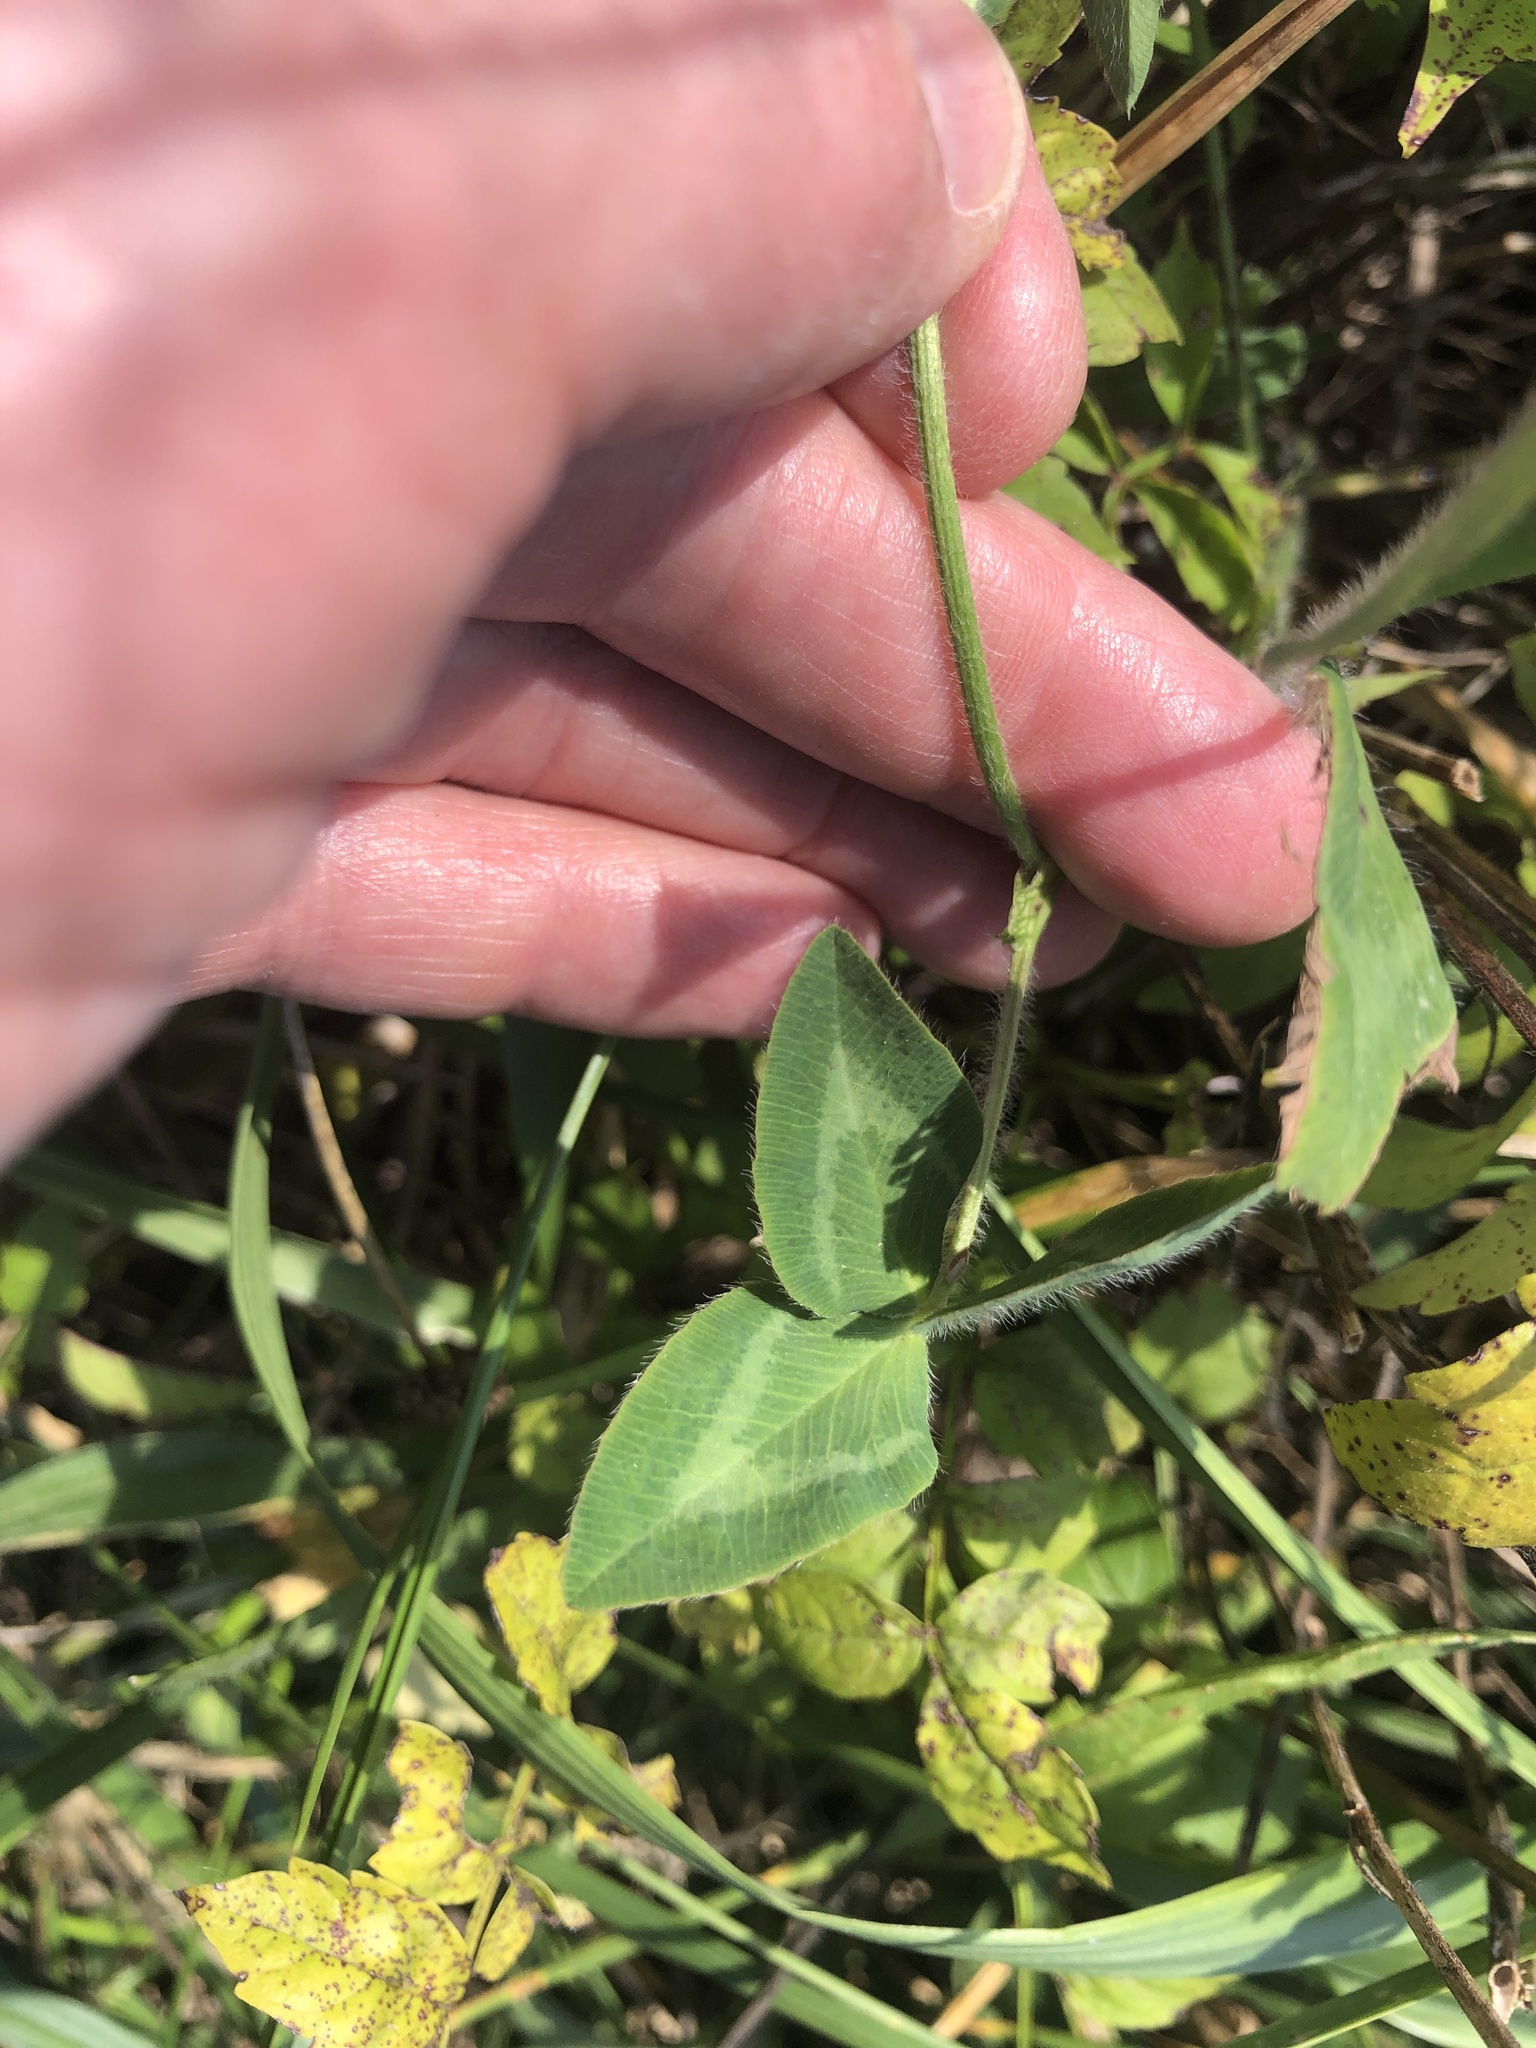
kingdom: Plantae
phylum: Tracheophyta
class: Magnoliopsida
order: Fabales
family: Fabaceae
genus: Trifolium
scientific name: Trifolium pratense
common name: Red clover
